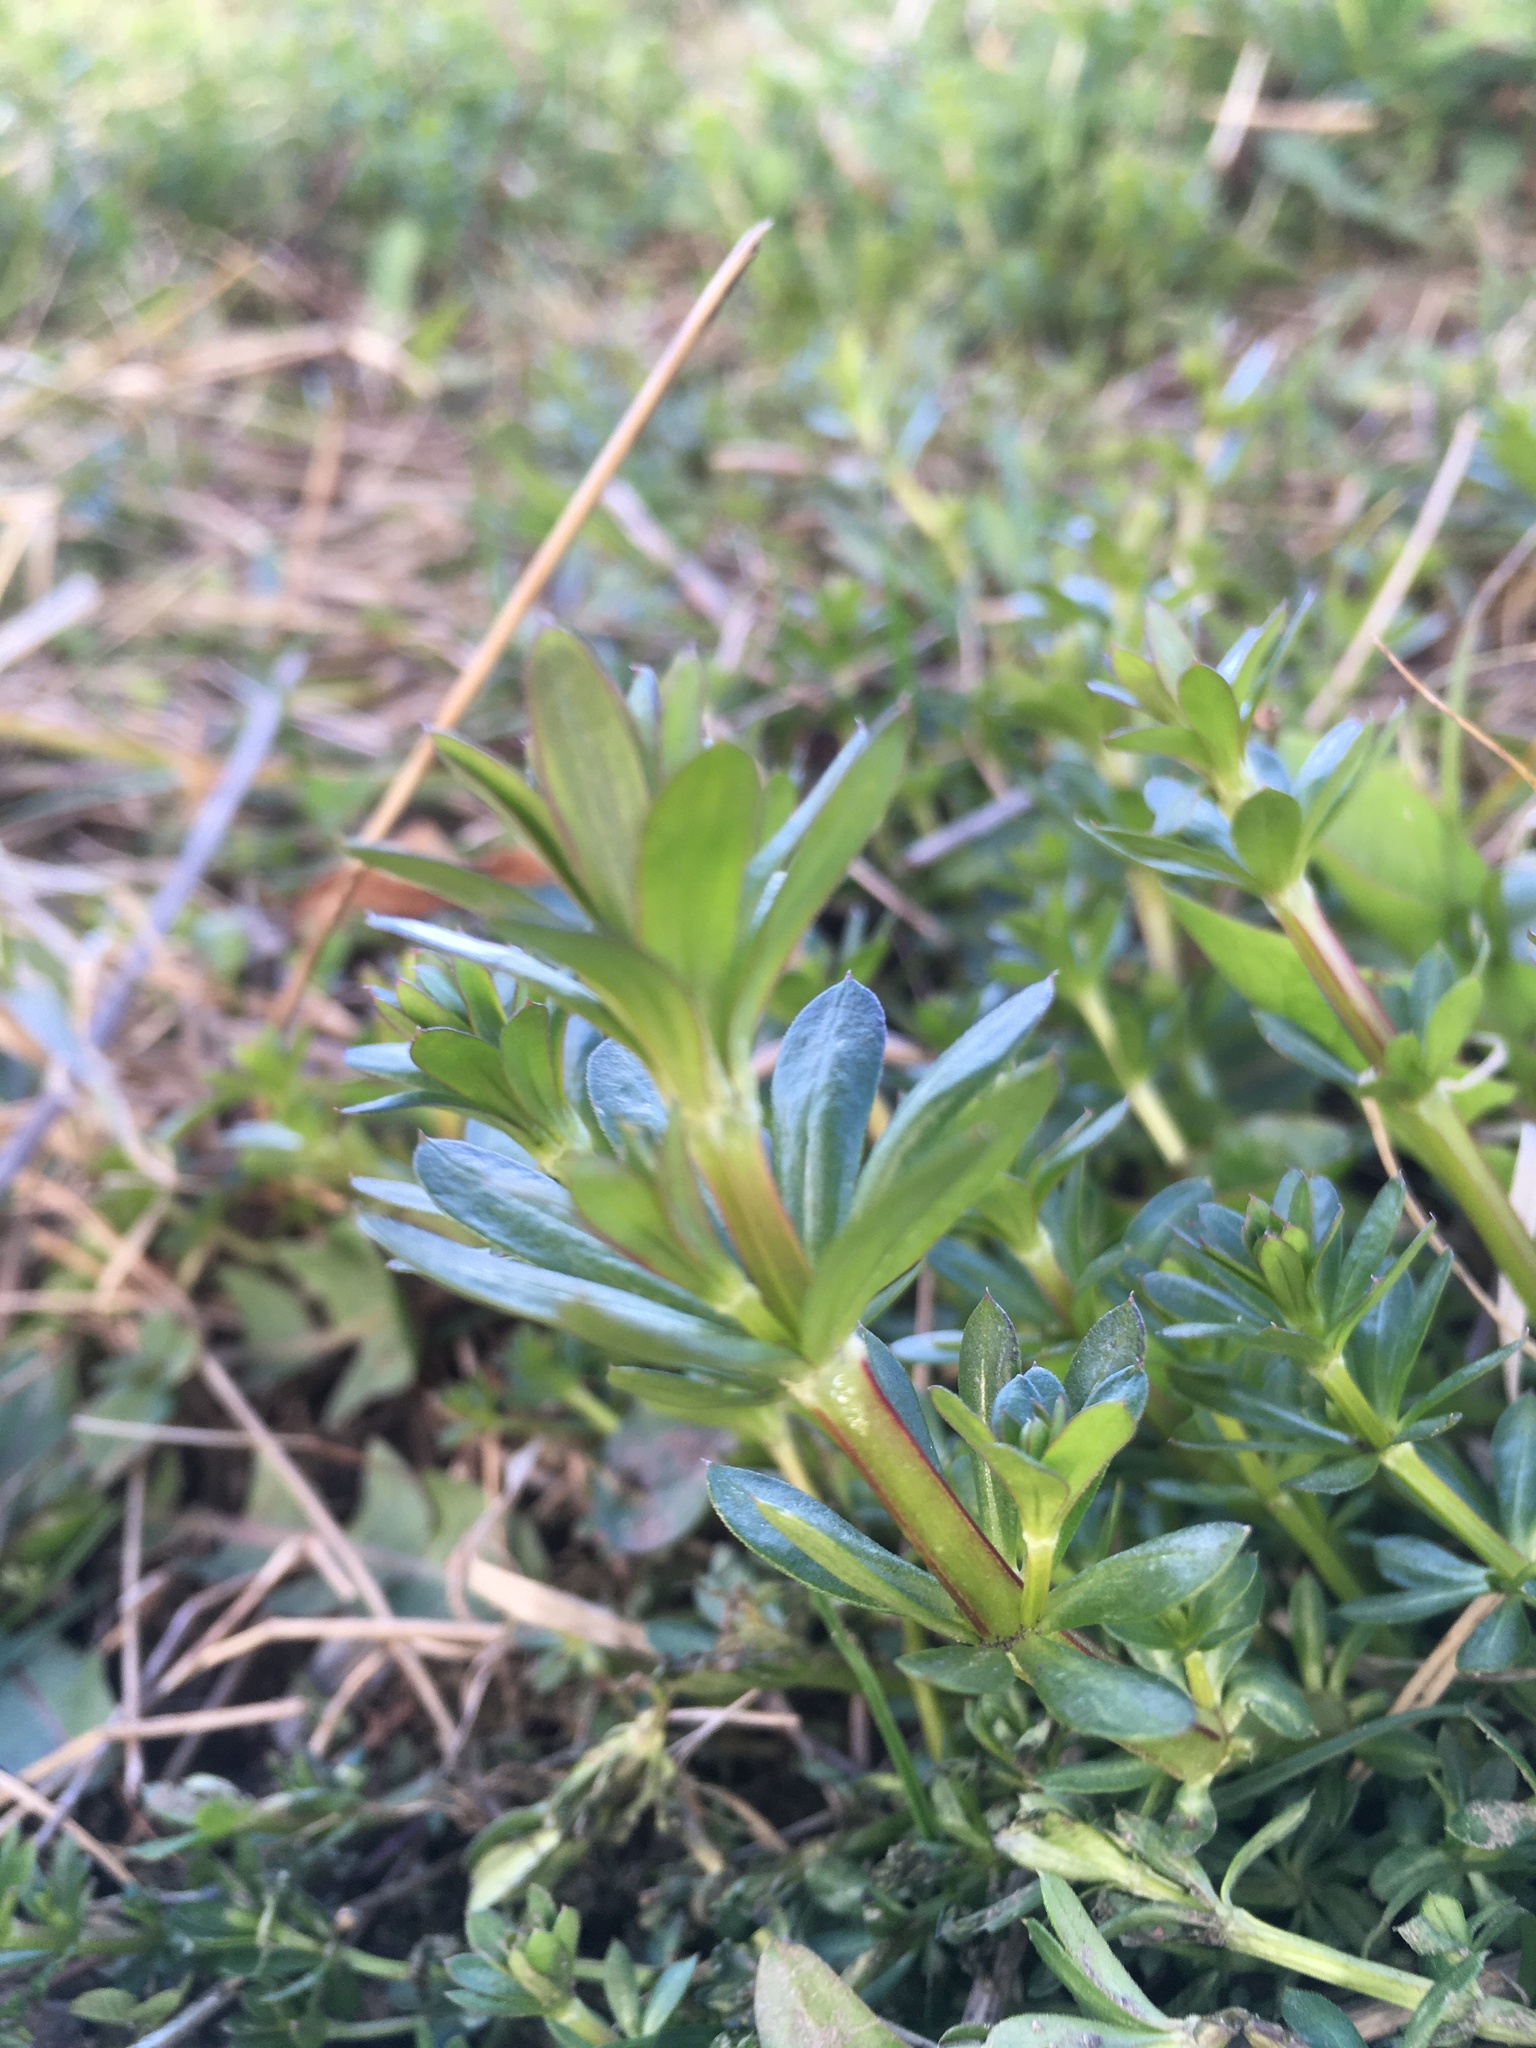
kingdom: Plantae
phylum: Tracheophyta
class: Magnoliopsida
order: Gentianales
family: Rubiaceae
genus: Galium
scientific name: Galium mollugo
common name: Hedge bedstraw
